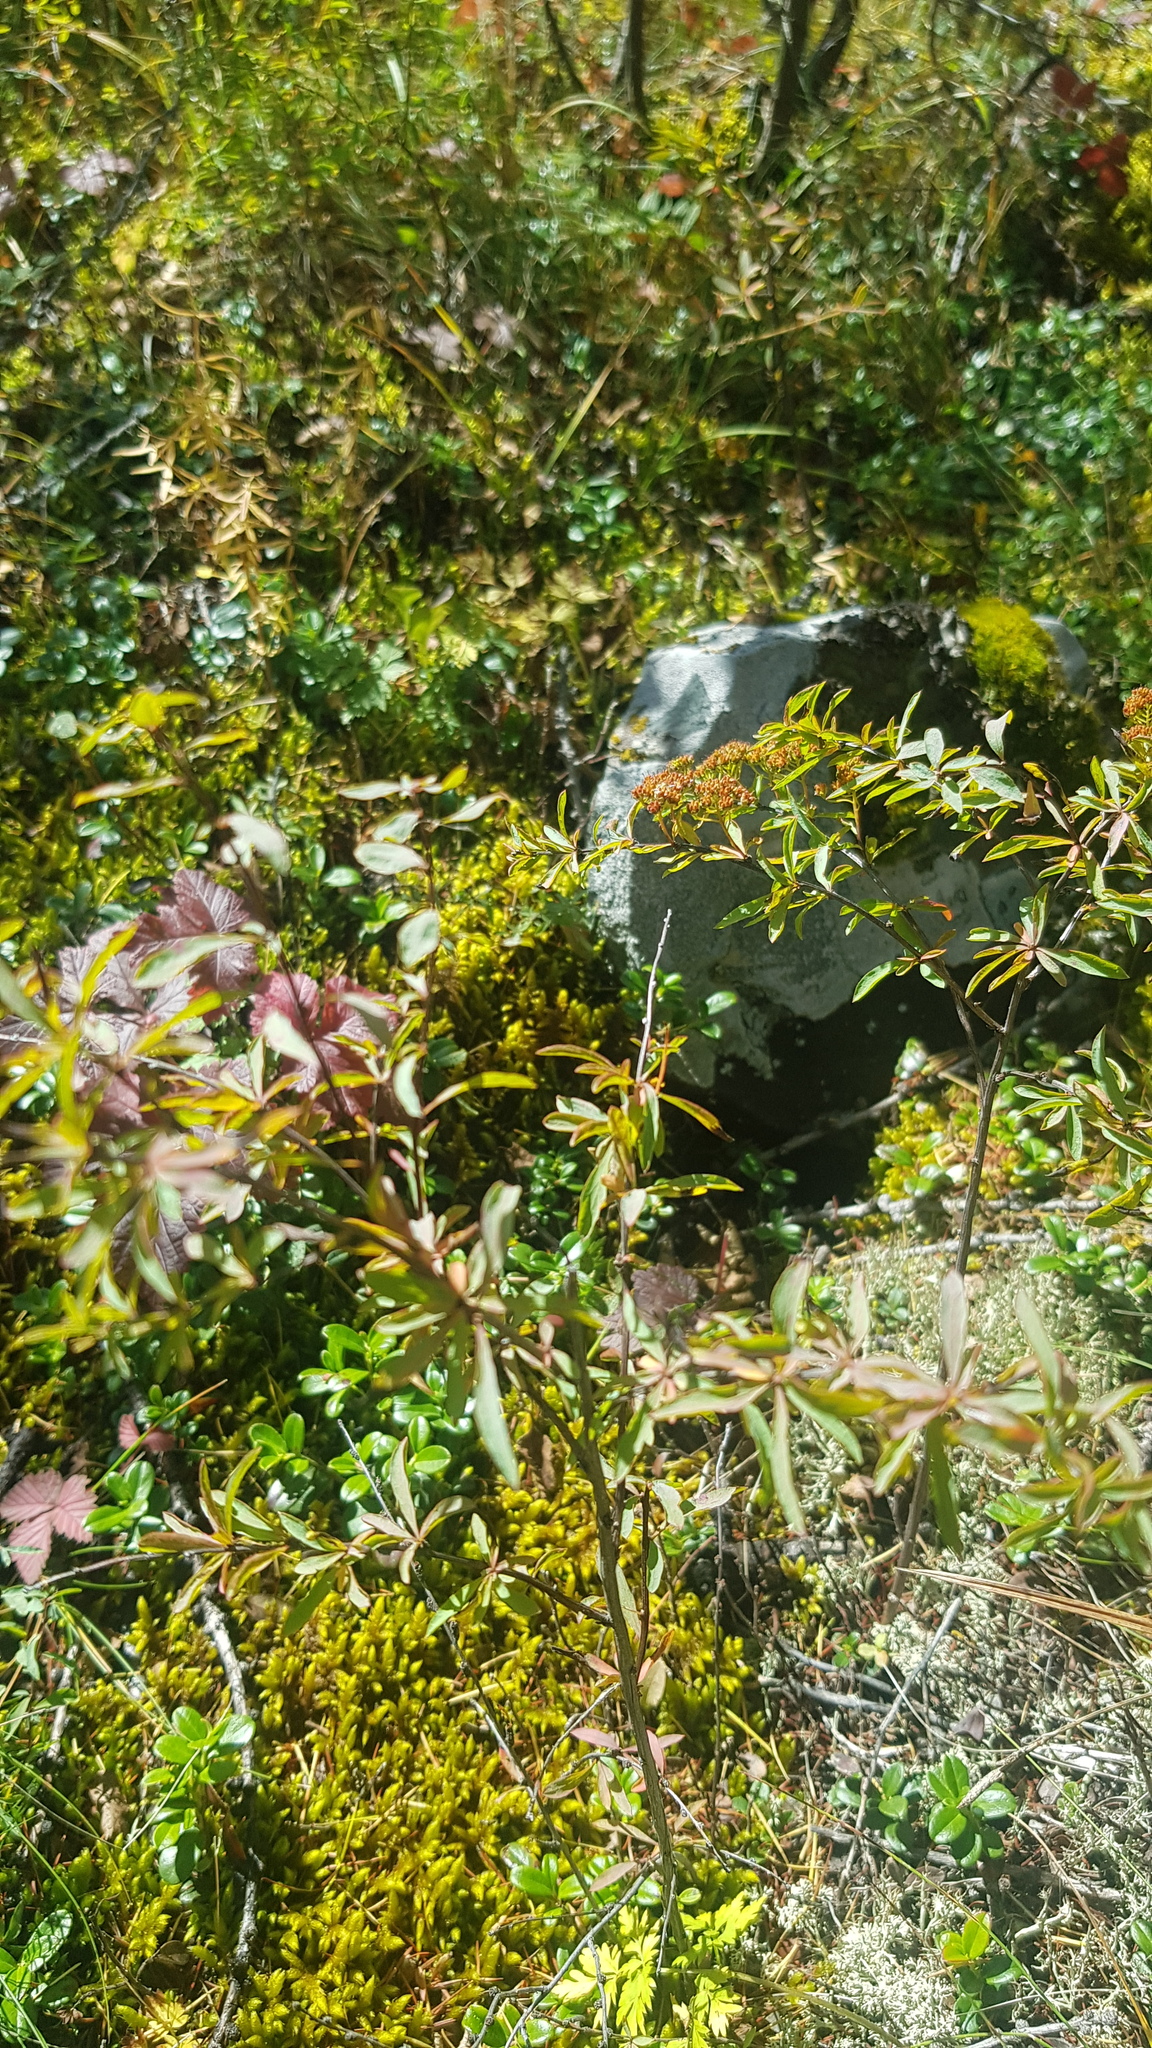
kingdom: Plantae
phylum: Tracheophyta
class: Magnoliopsida
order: Rosales
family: Rosaceae
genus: Spiraea
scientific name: Spiraea alpina
